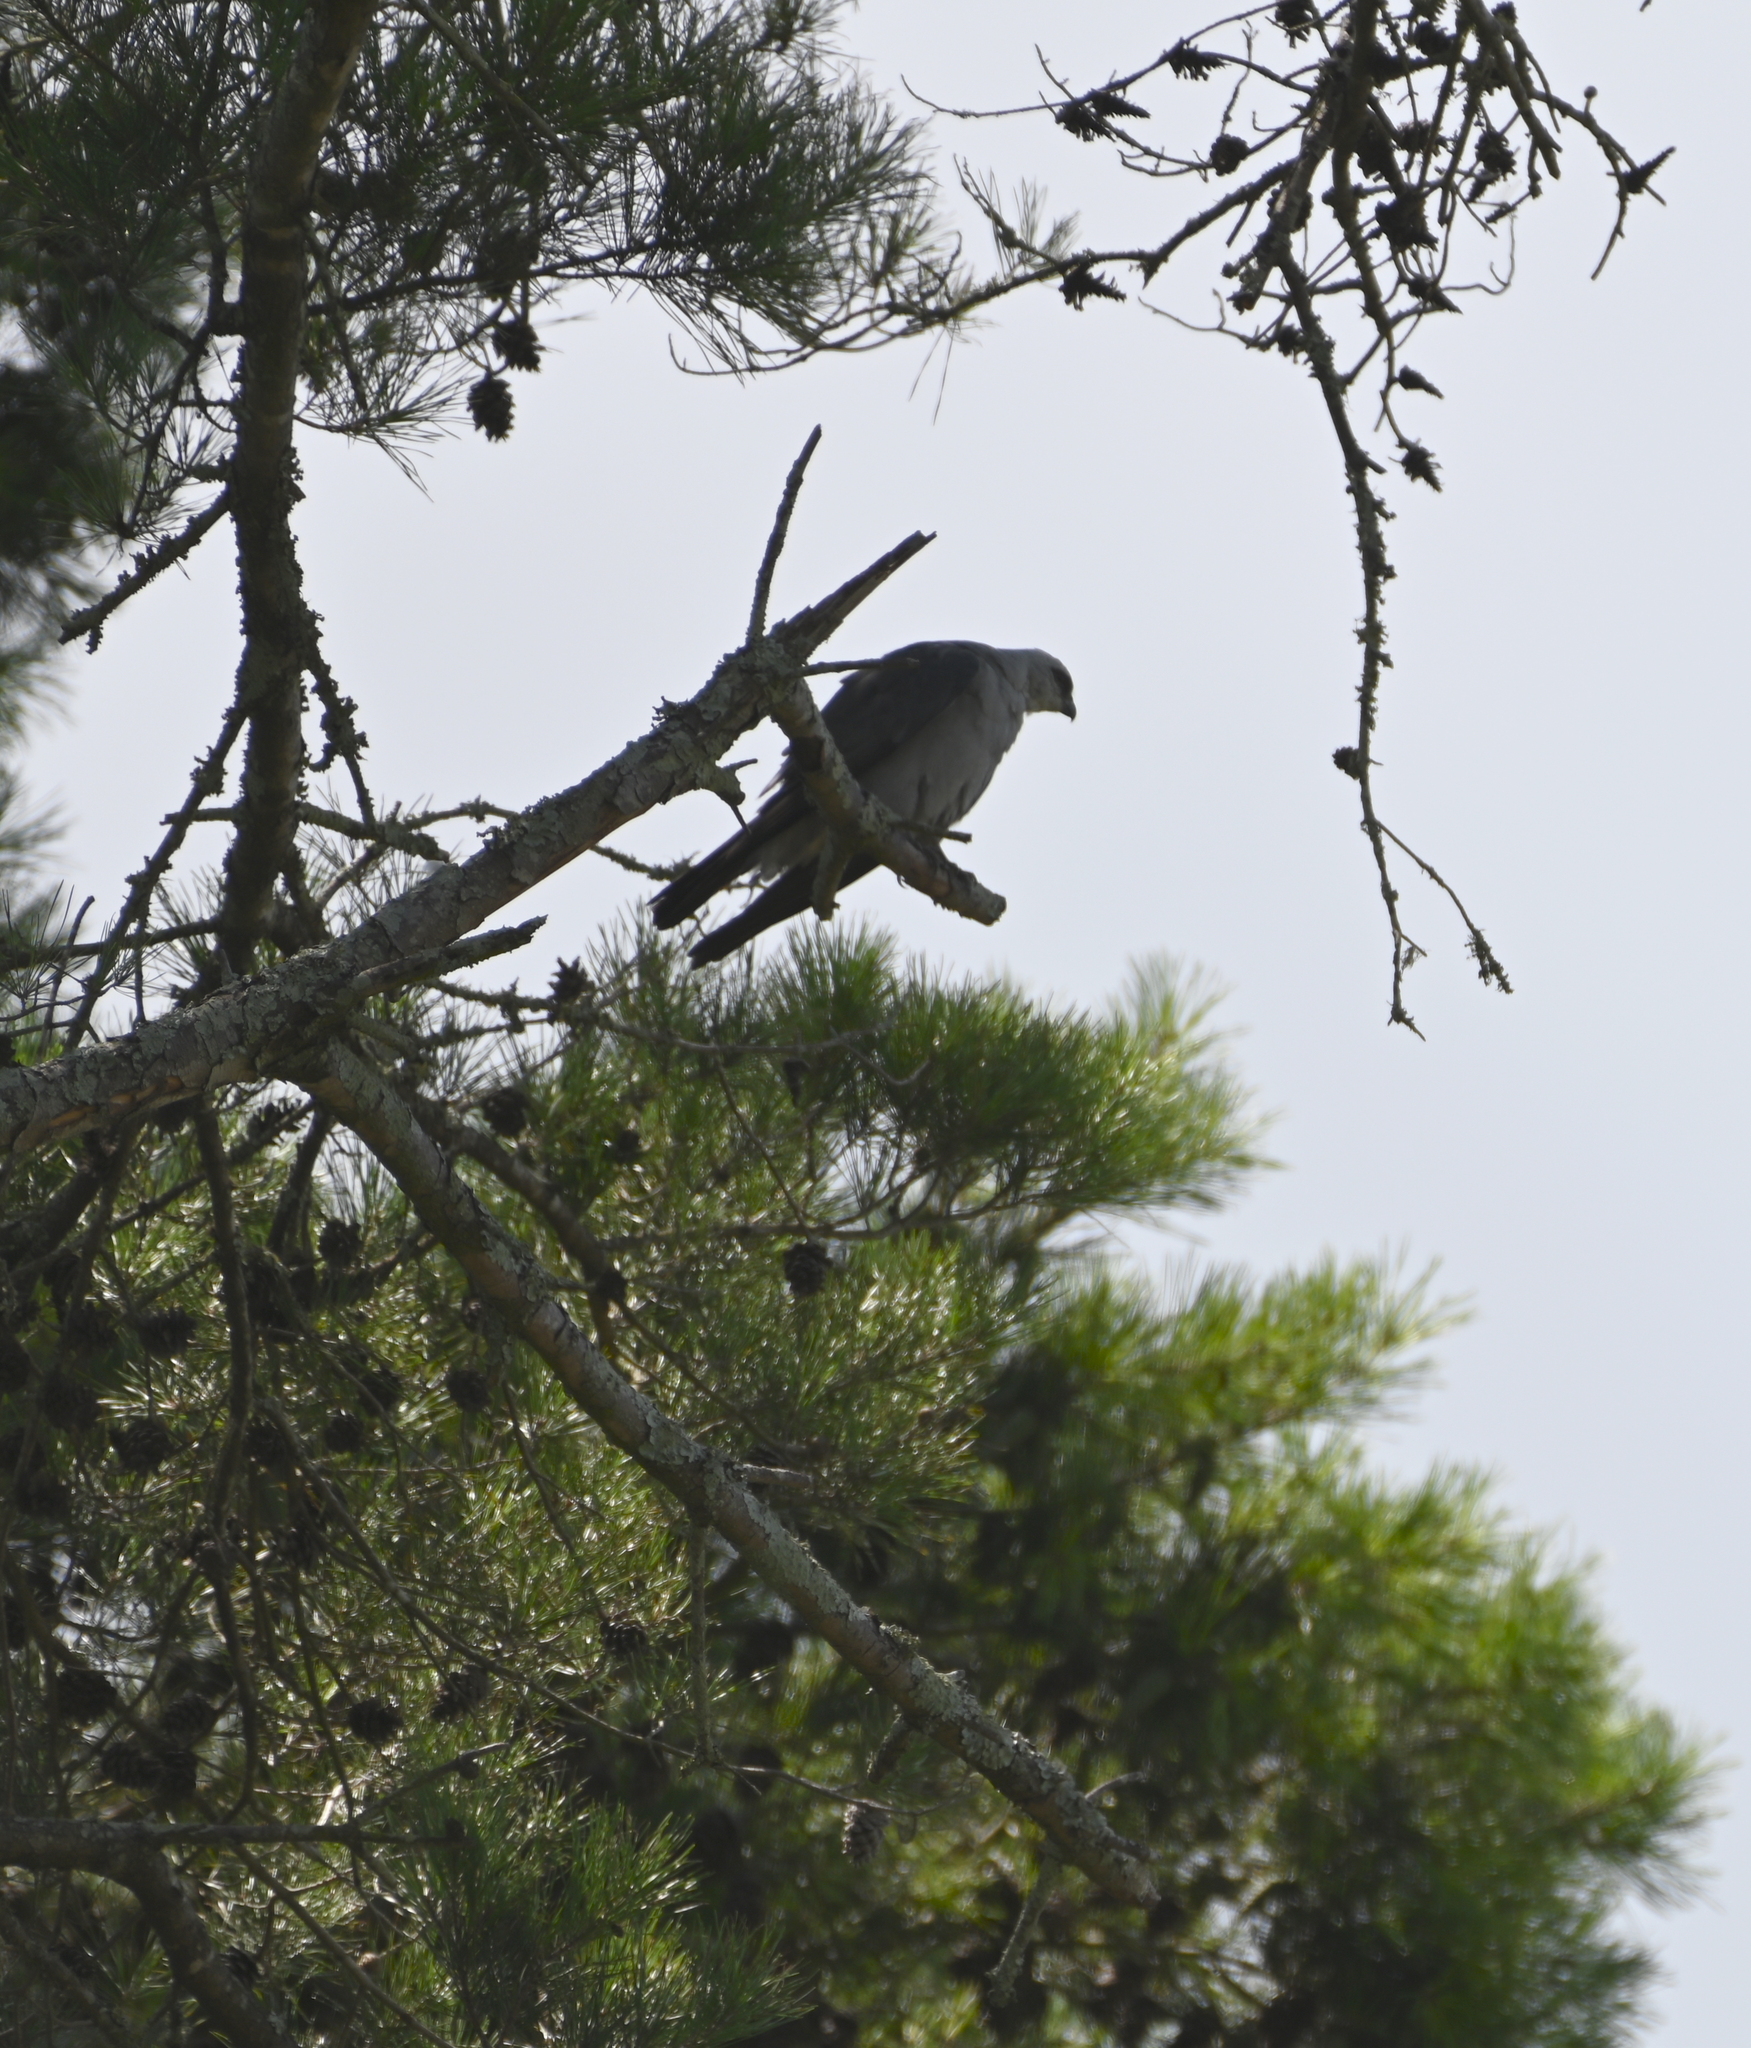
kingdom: Animalia
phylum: Chordata
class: Aves
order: Accipitriformes
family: Accipitridae
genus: Ictinia
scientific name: Ictinia mississippiensis
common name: Mississippi kite
